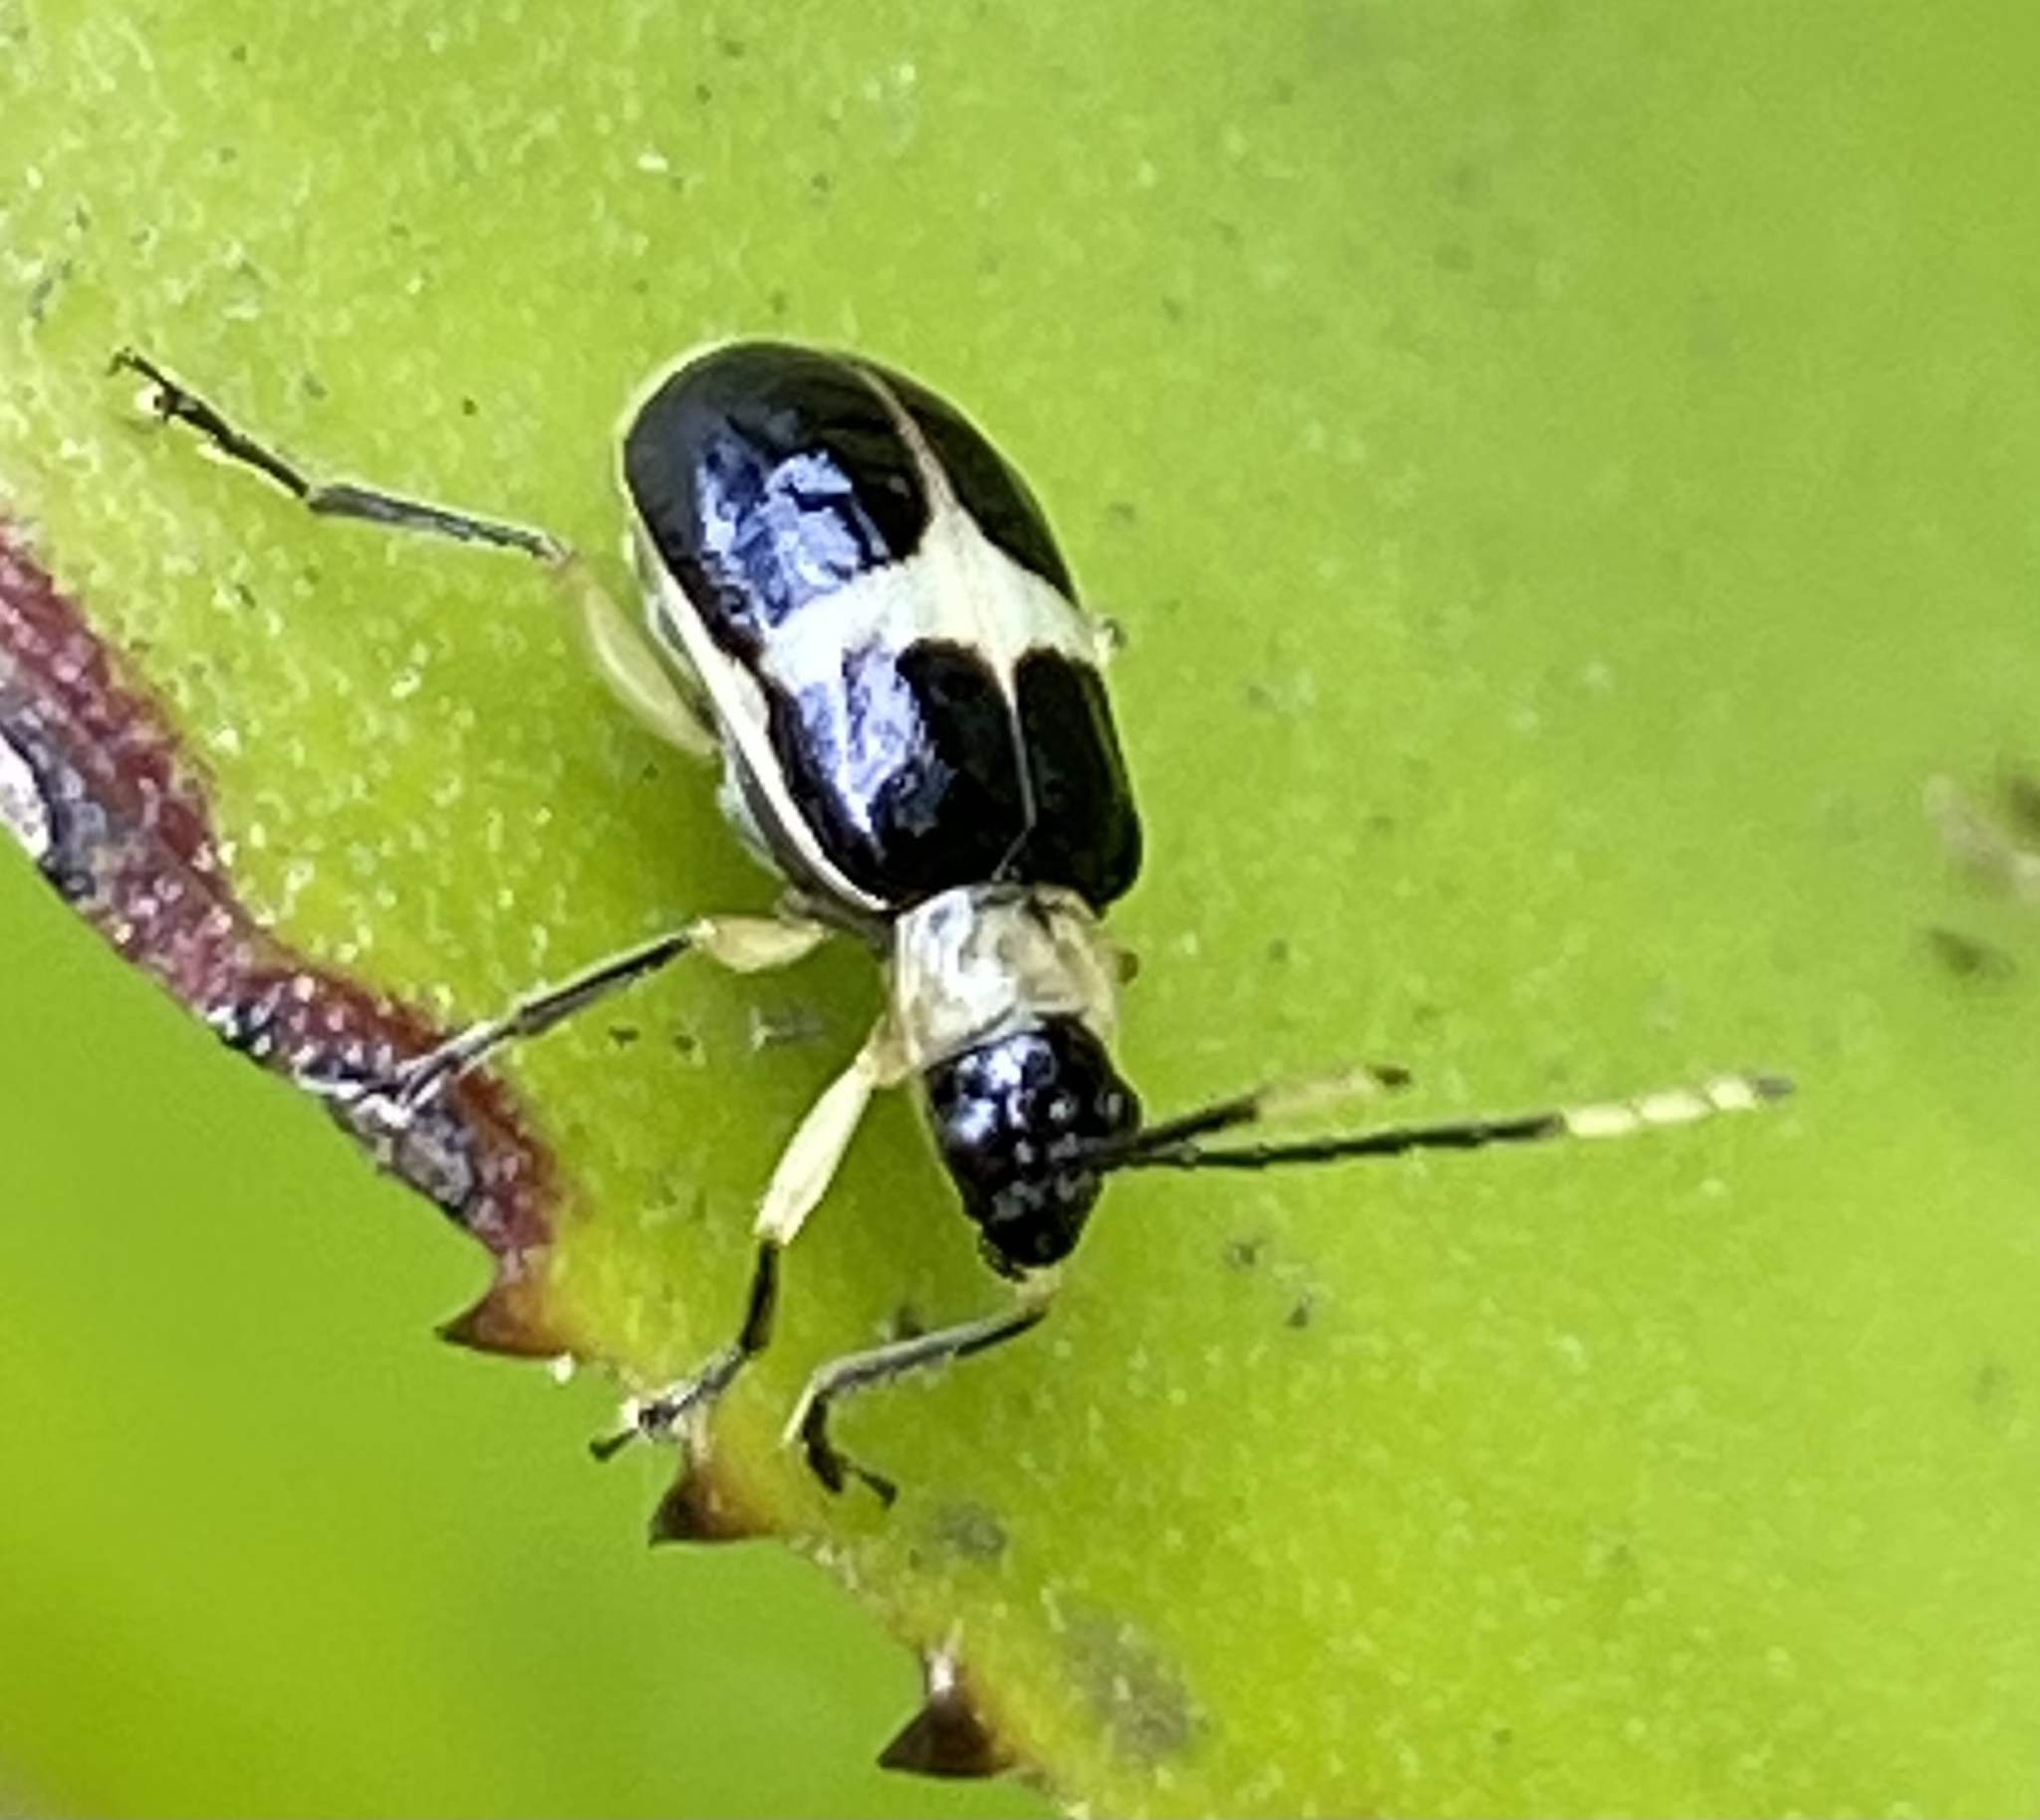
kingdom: Animalia
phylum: Arthropoda
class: Insecta
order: Coleoptera
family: Chrysomelidae
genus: Isotes
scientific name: Isotes
